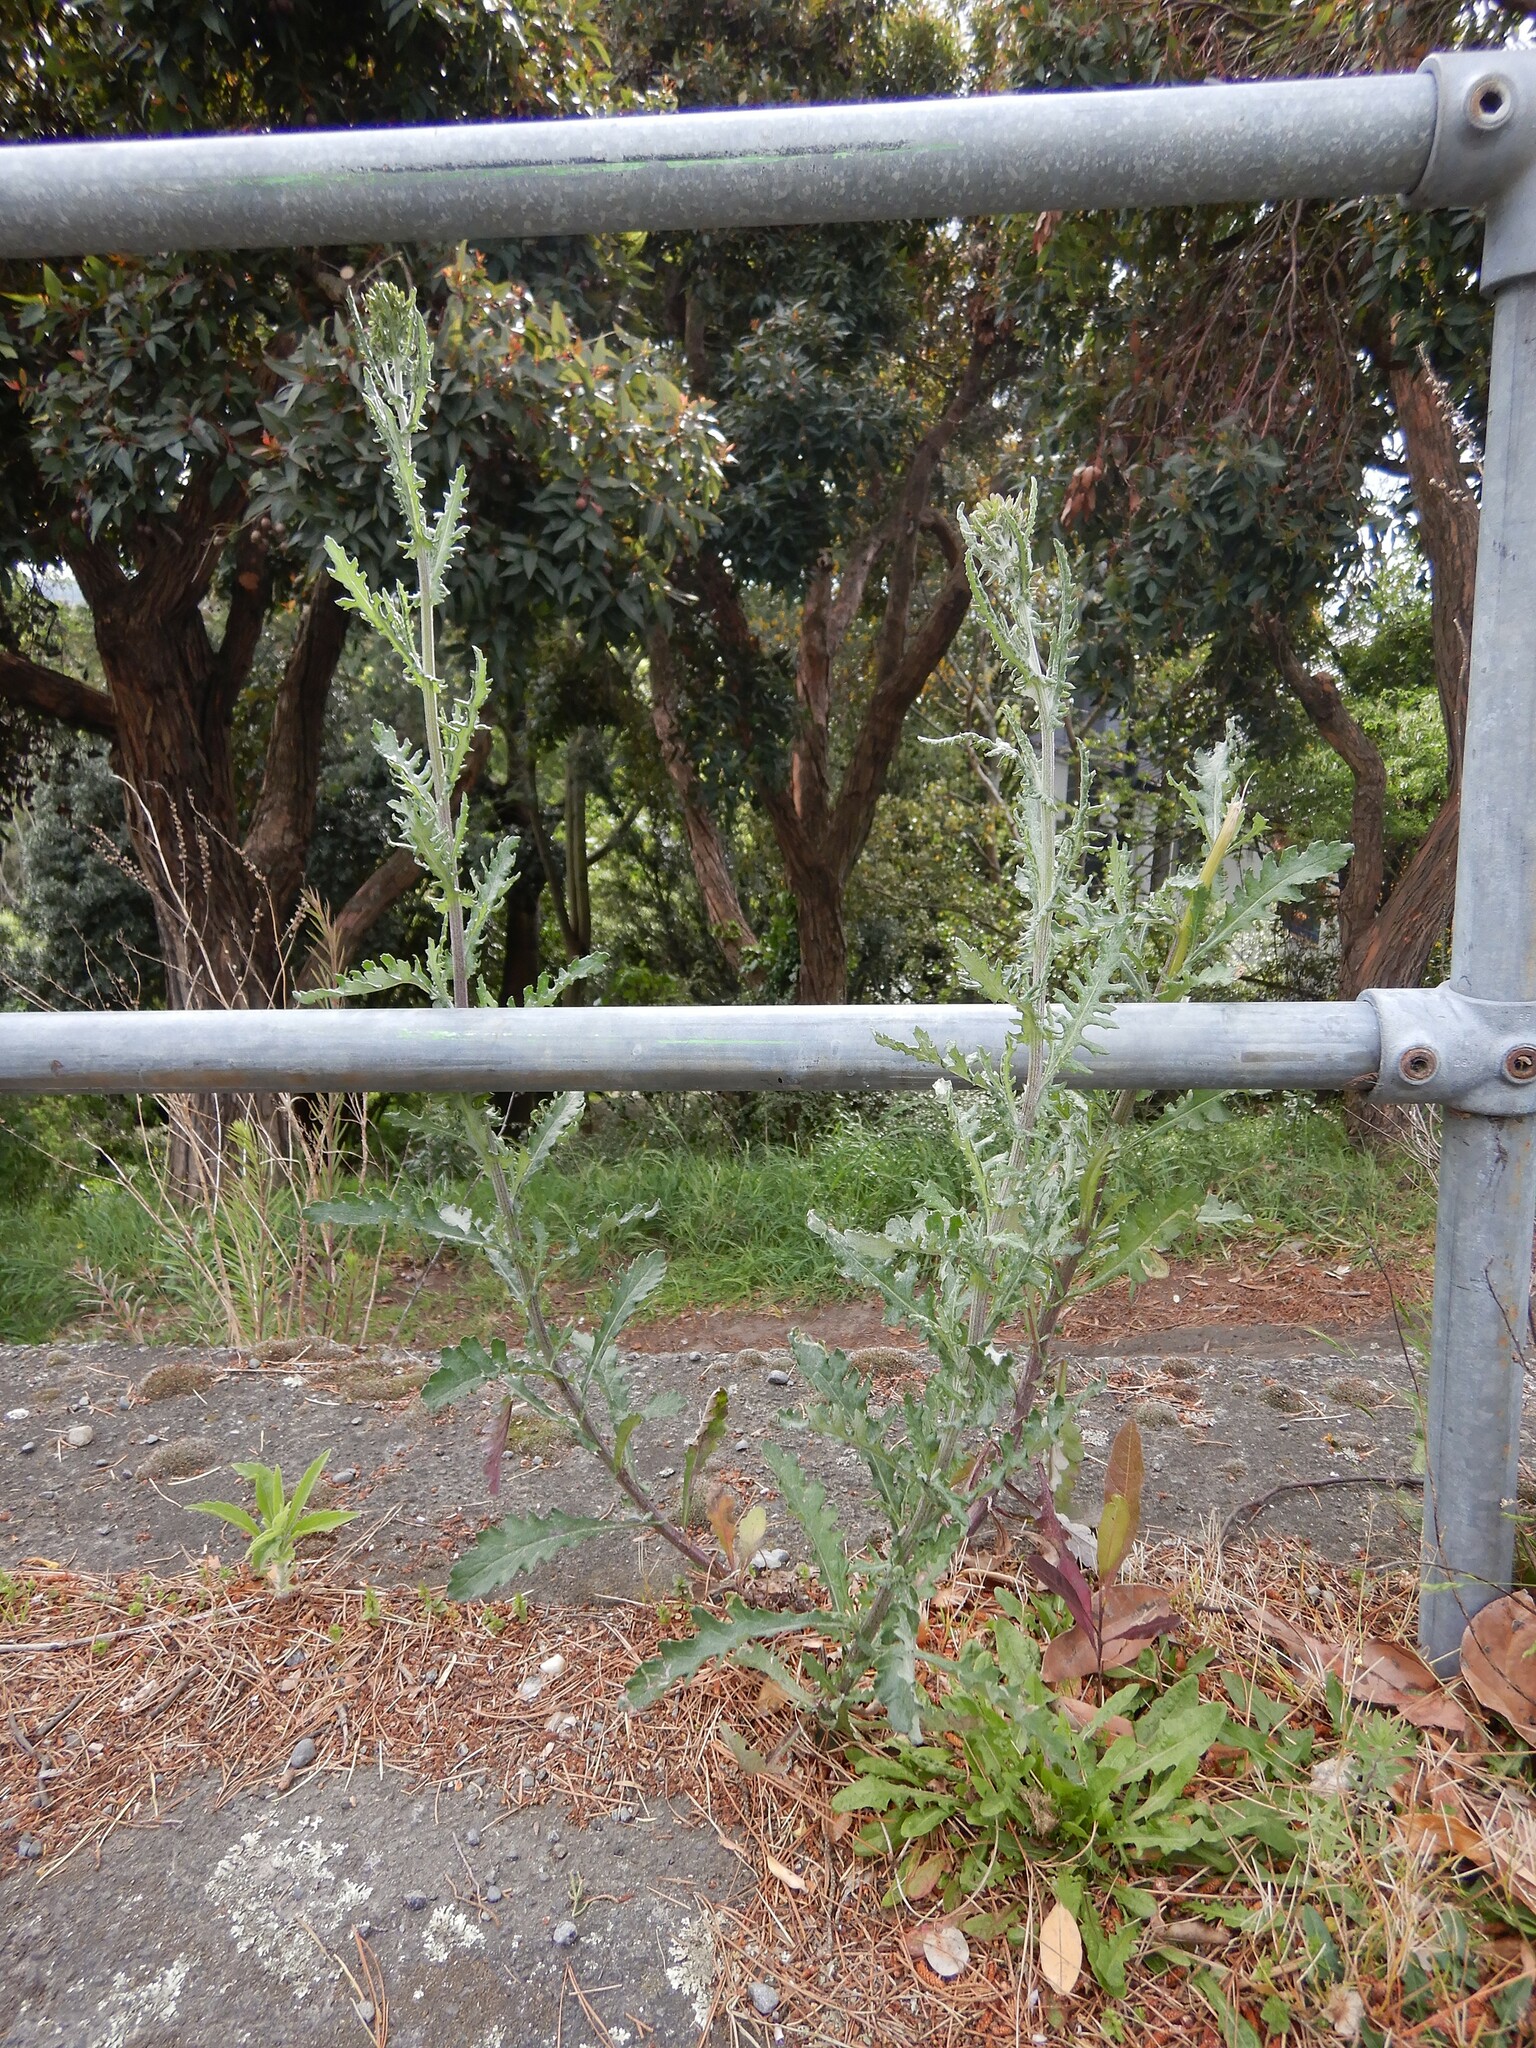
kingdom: Plantae
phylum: Tracheophyta
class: Magnoliopsida
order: Asterales
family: Asteraceae
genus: Senecio
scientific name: Senecio glomeratus
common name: Cutleaf burnweed
